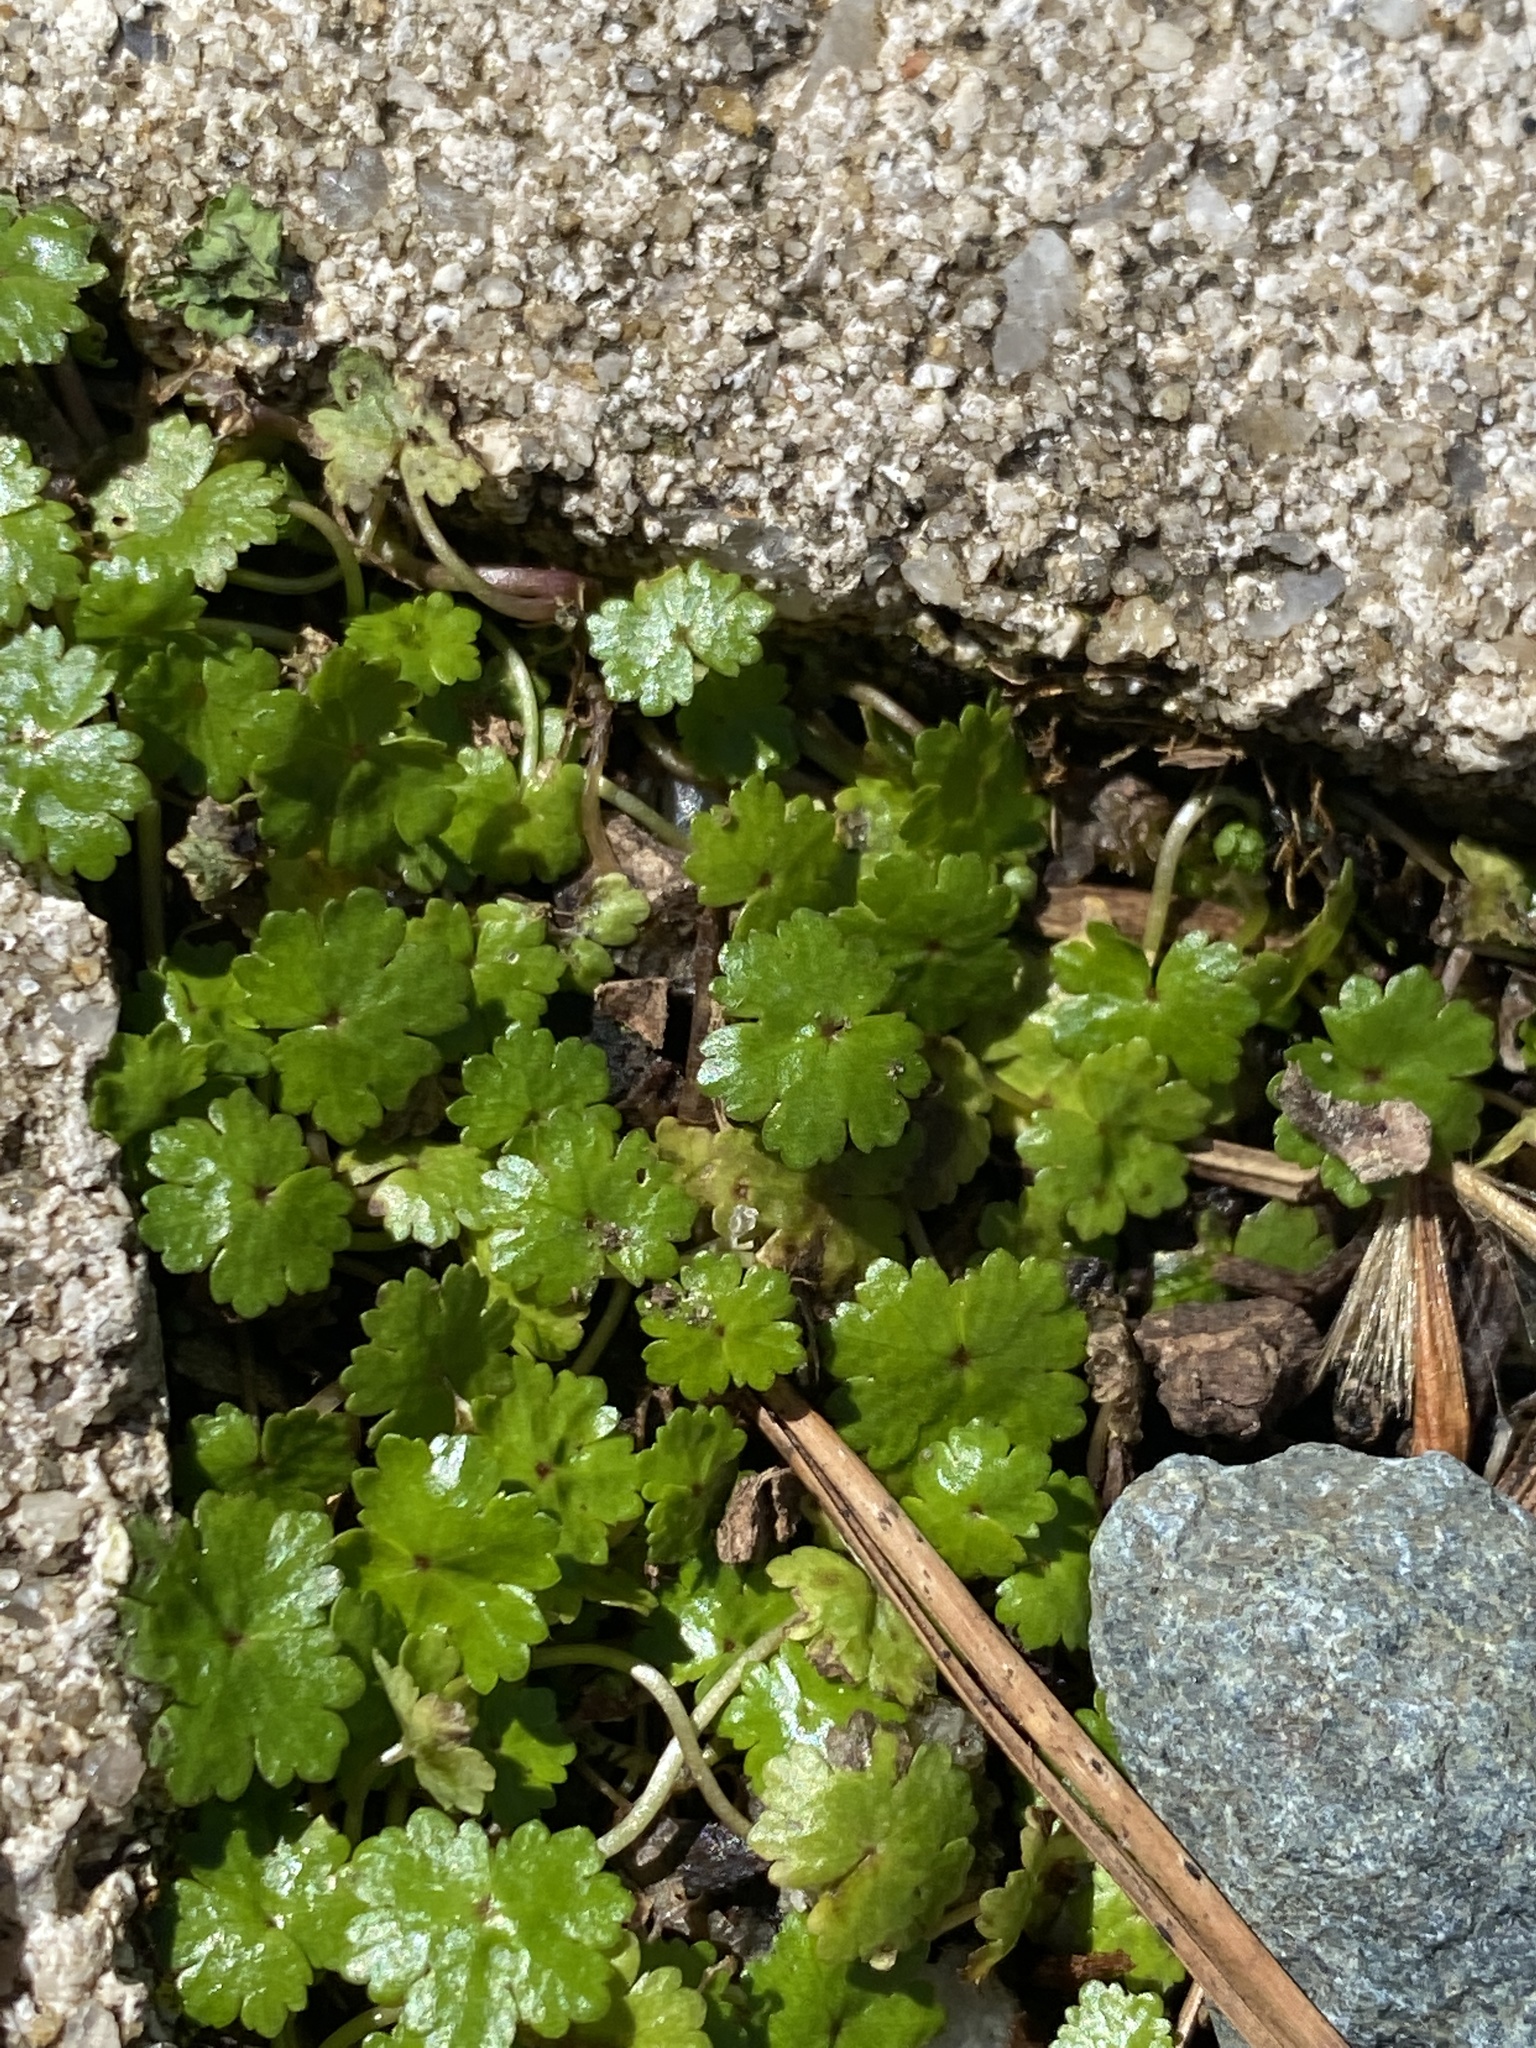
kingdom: Plantae
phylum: Tracheophyta
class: Magnoliopsida
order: Apiales
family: Araliaceae
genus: Hydrocotyle
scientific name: Hydrocotyle sibthorpioides
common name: Lawn marshpennywort
